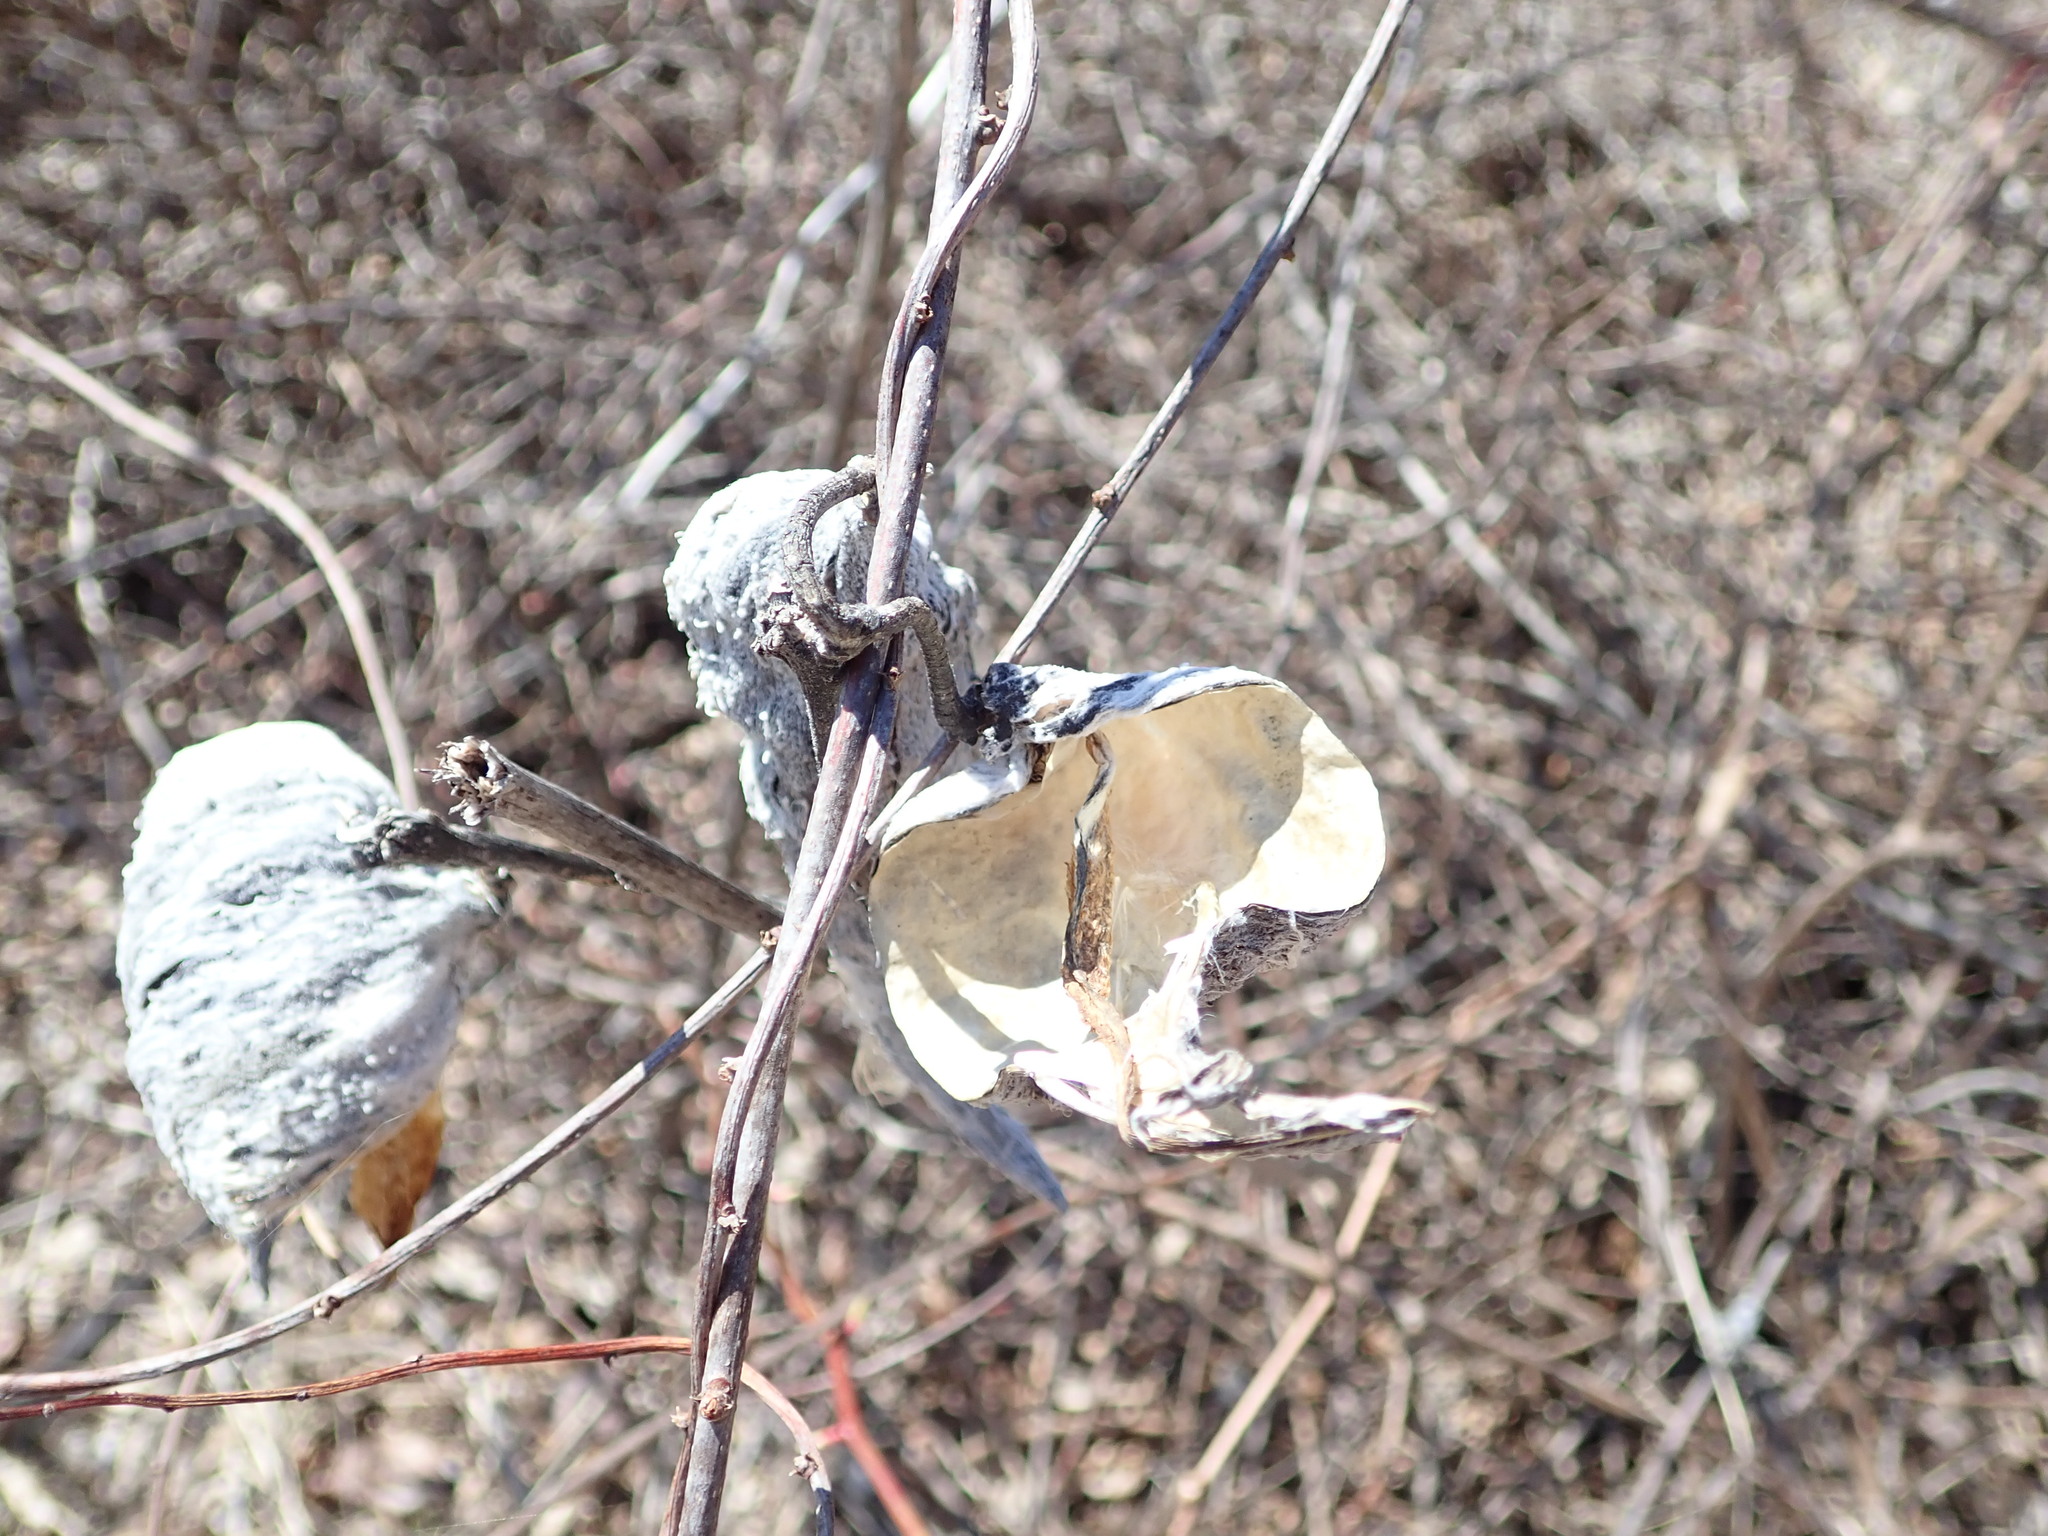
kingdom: Plantae
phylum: Tracheophyta
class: Magnoliopsida
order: Gentianales
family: Apocynaceae
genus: Asclepias
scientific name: Asclepias syriaca
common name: Common milkweed
